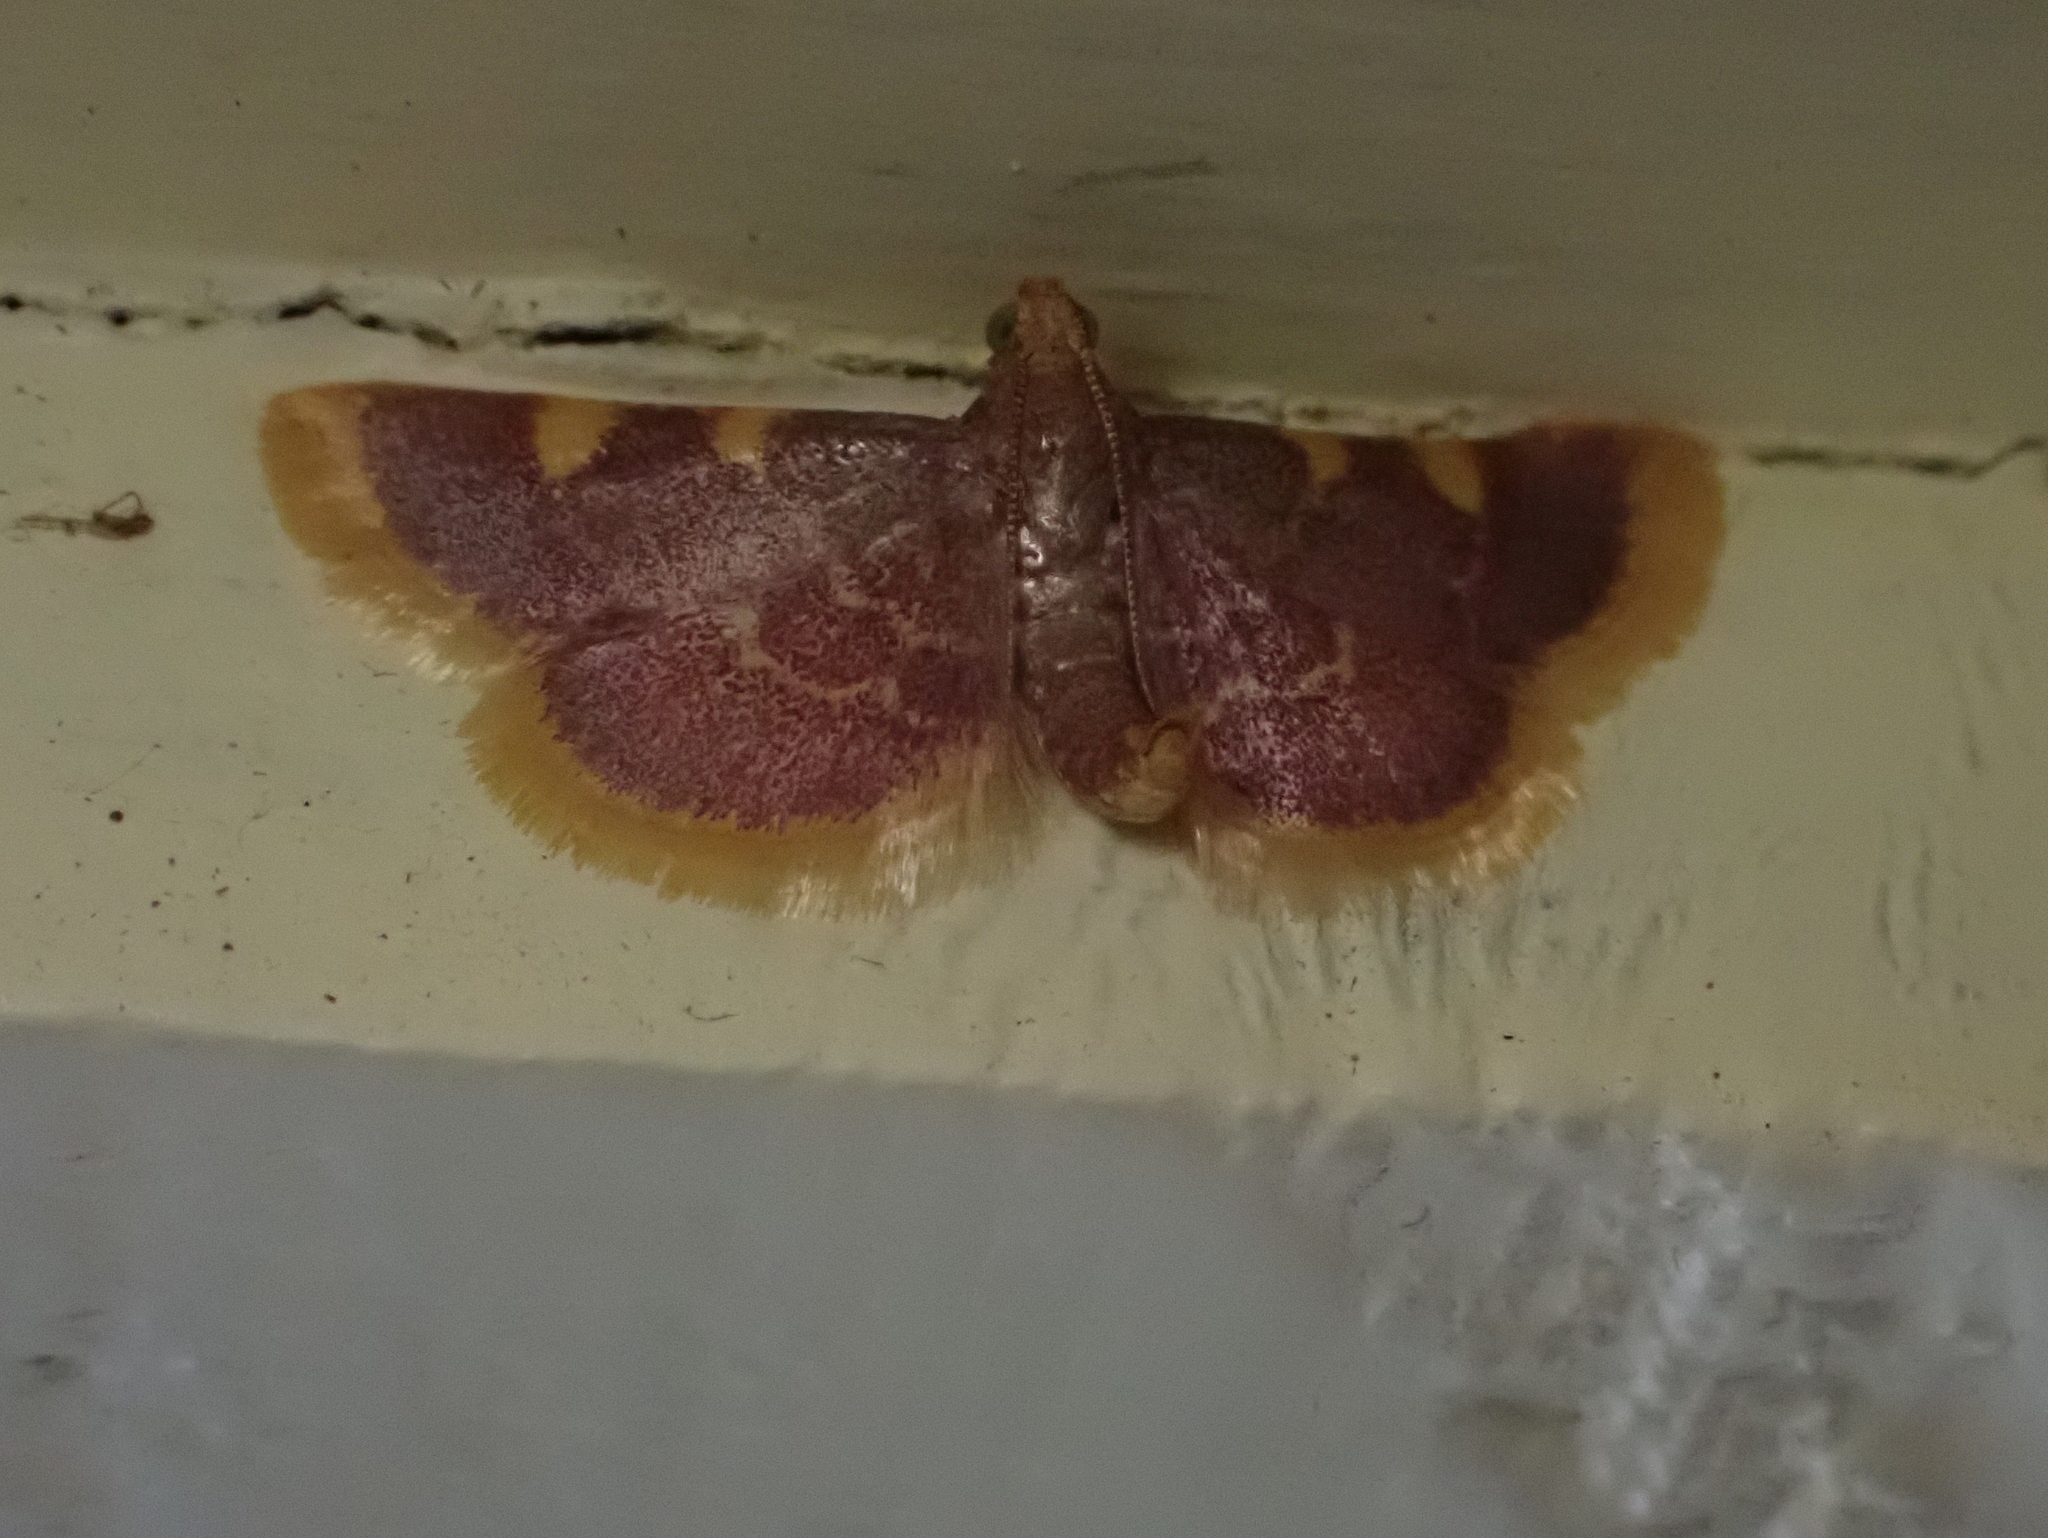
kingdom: Animalia
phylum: Arthropoda
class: Insecta
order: Lepidoptera
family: Pyralidae
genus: Hypsopygia
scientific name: Hypsopygia costalis
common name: Gold triangle
